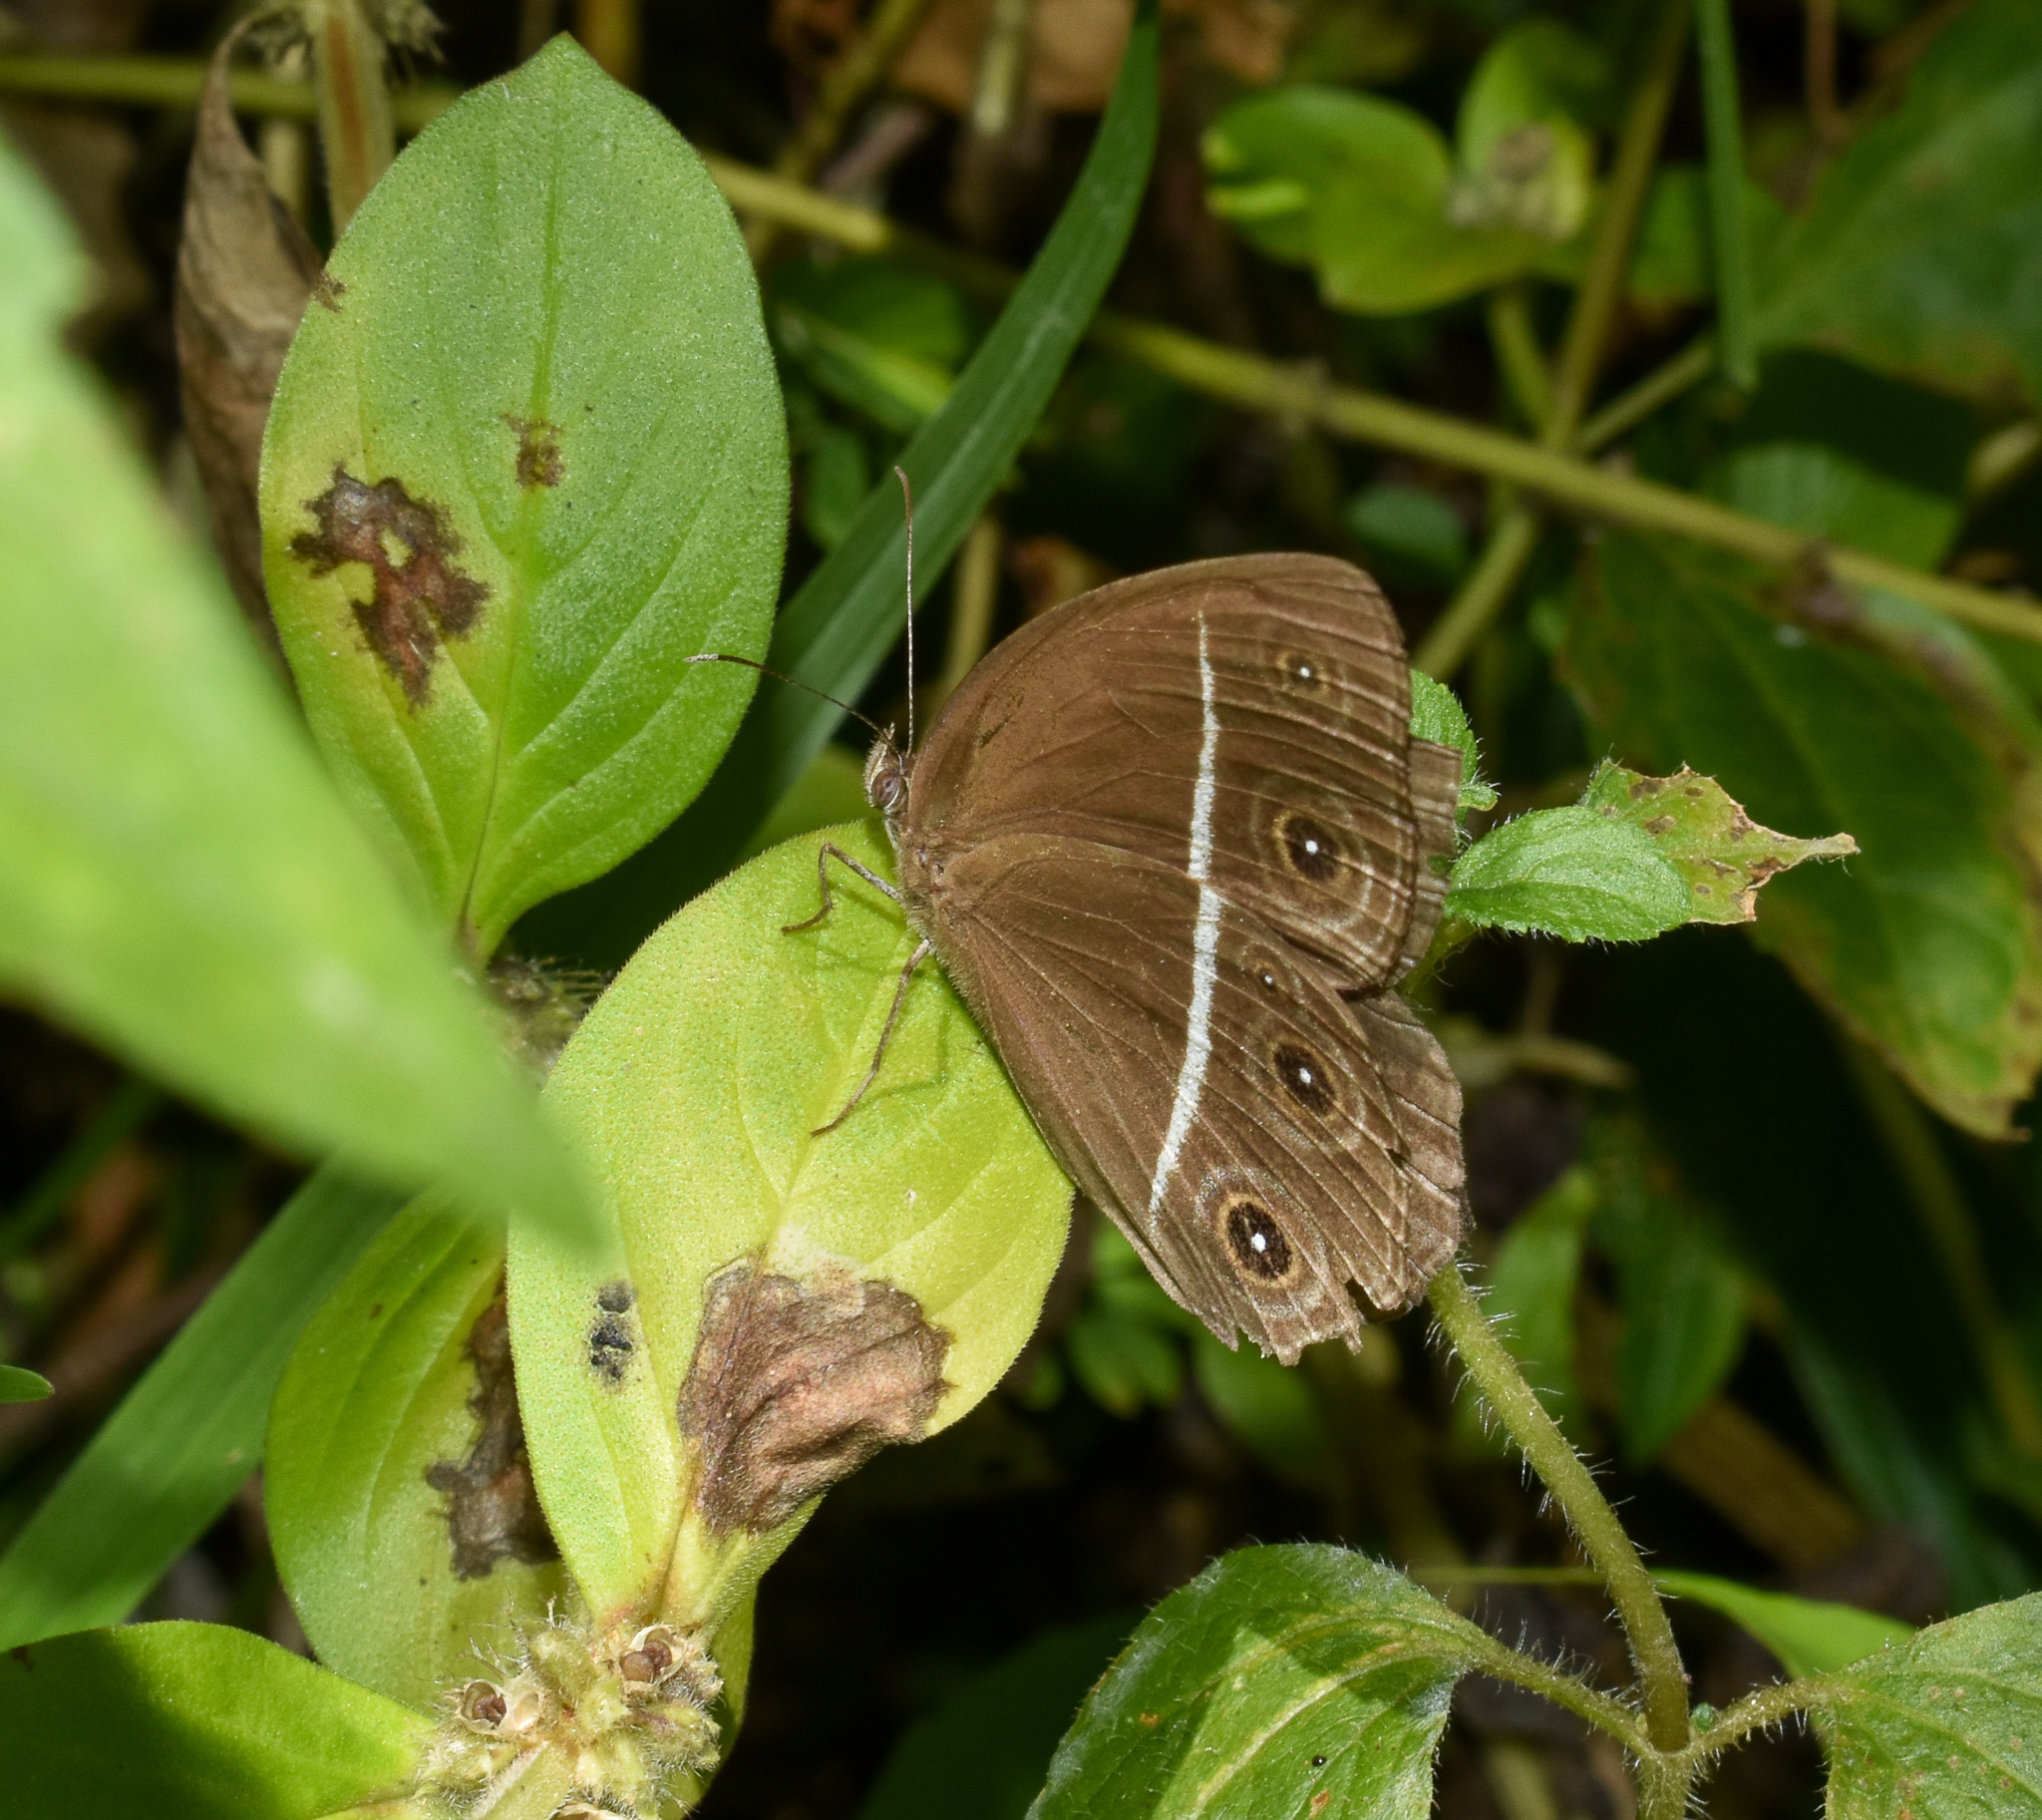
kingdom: Animalia
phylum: Arthropoda
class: Insecta
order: Lepidoptera
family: Nymphalidae
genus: Orsotriaena
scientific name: Orsotriaena medus
